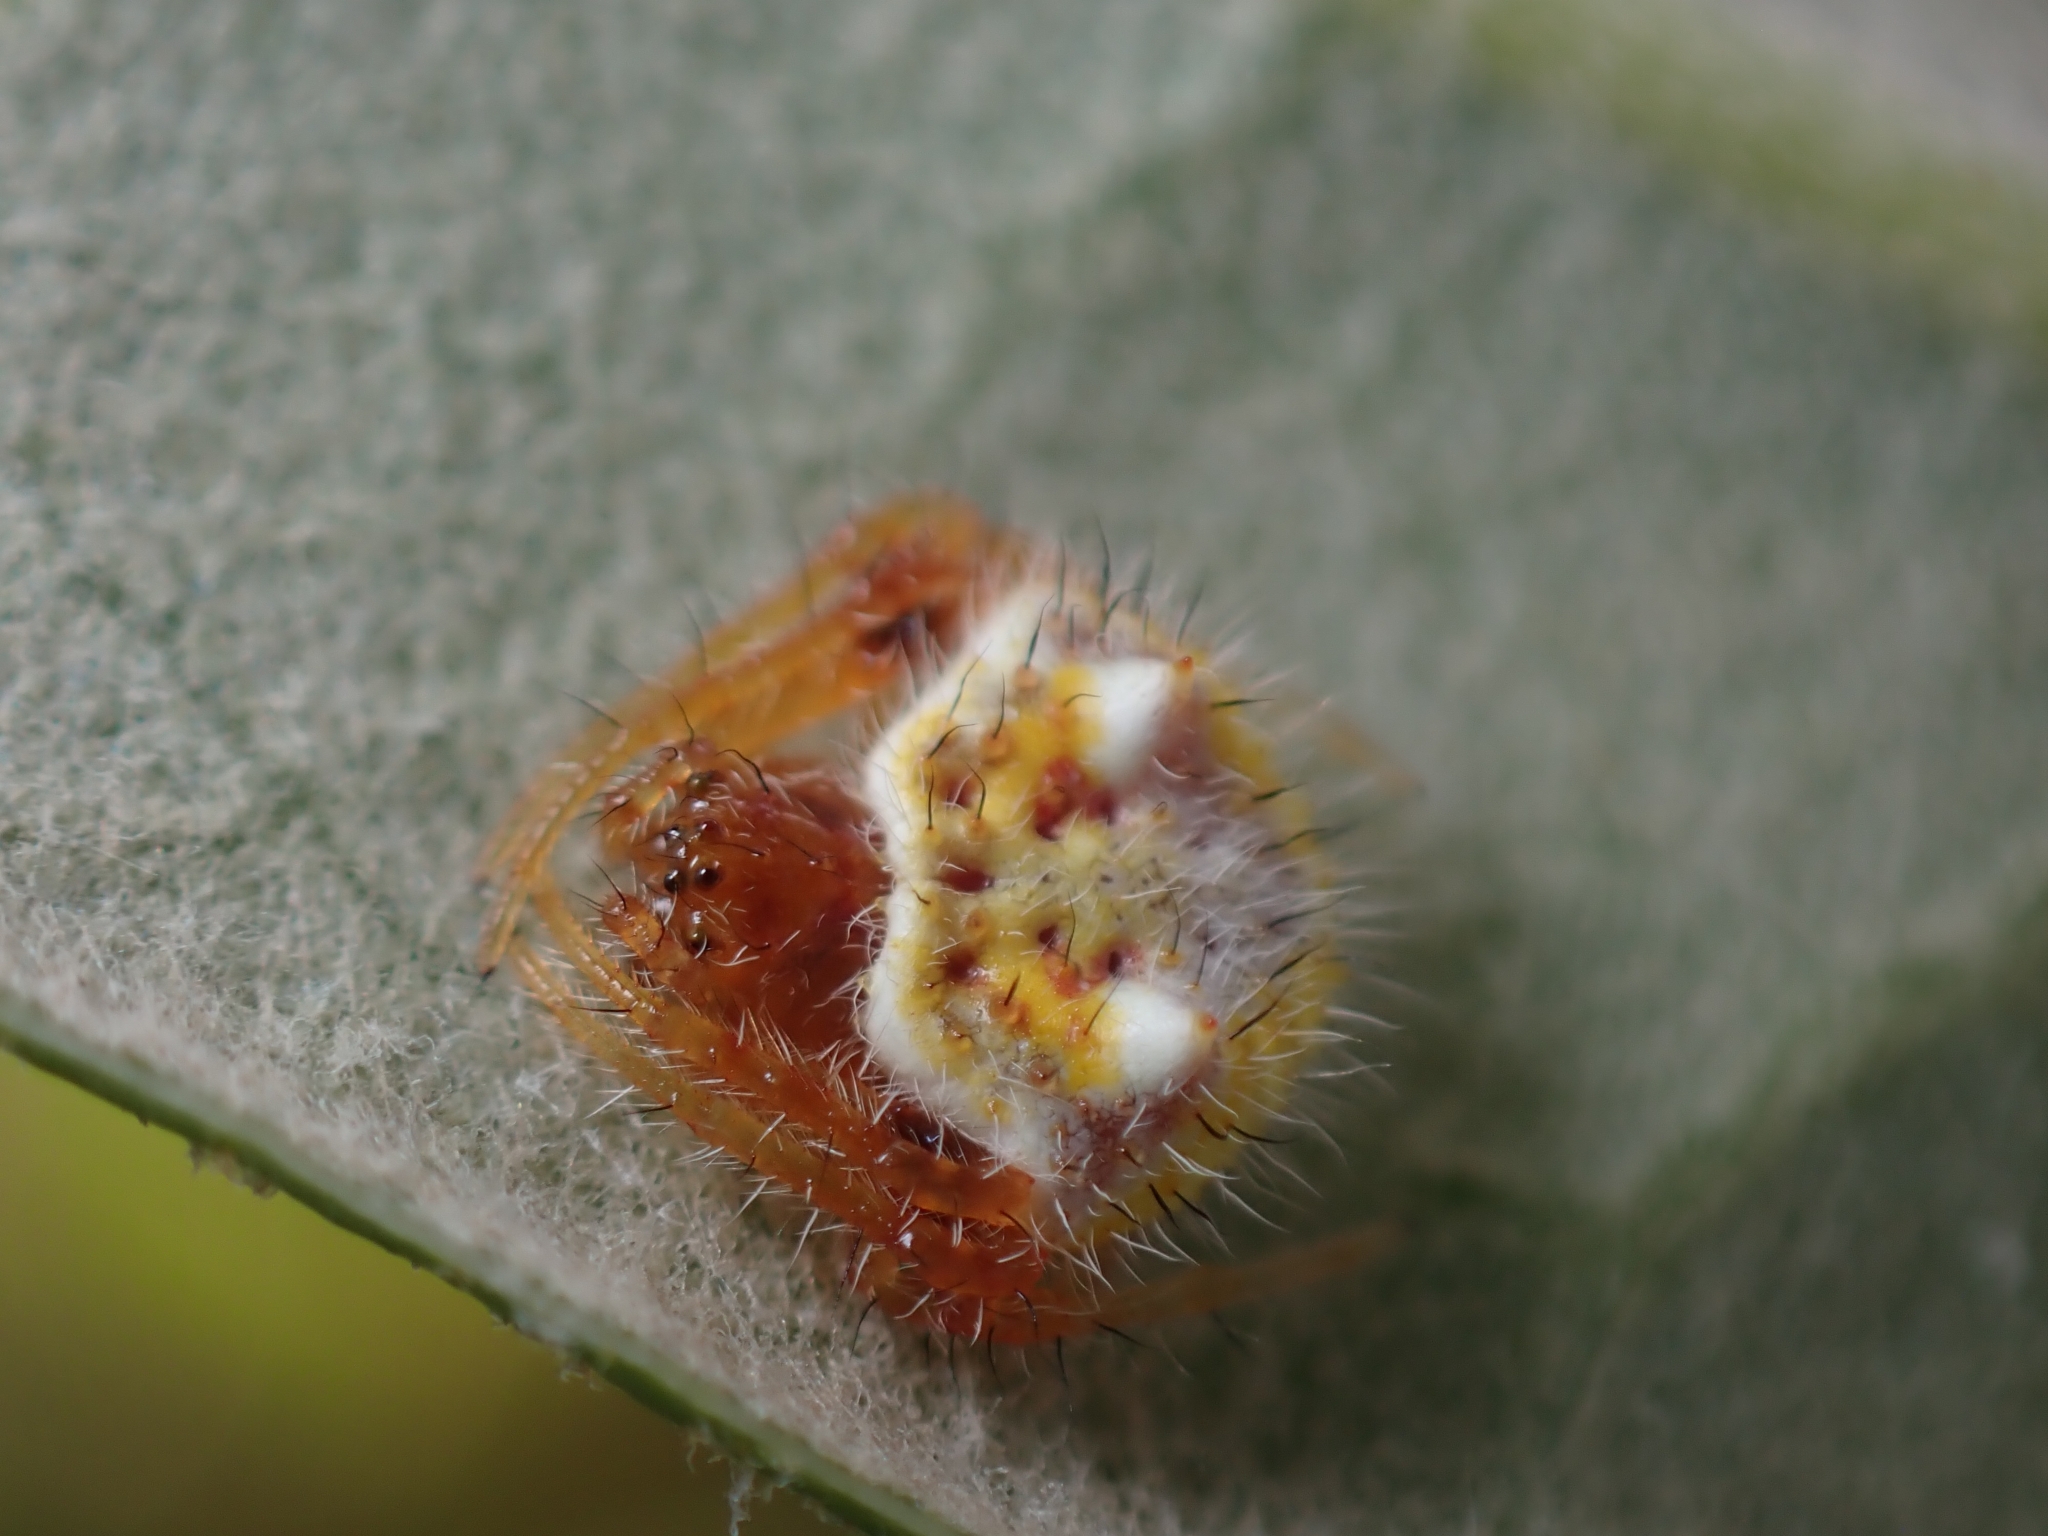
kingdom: Animalia
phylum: Arthropoda
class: Arachnida
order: Araneae
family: Araneidae
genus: Poecilopachys
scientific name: Poecilopachys australasia
